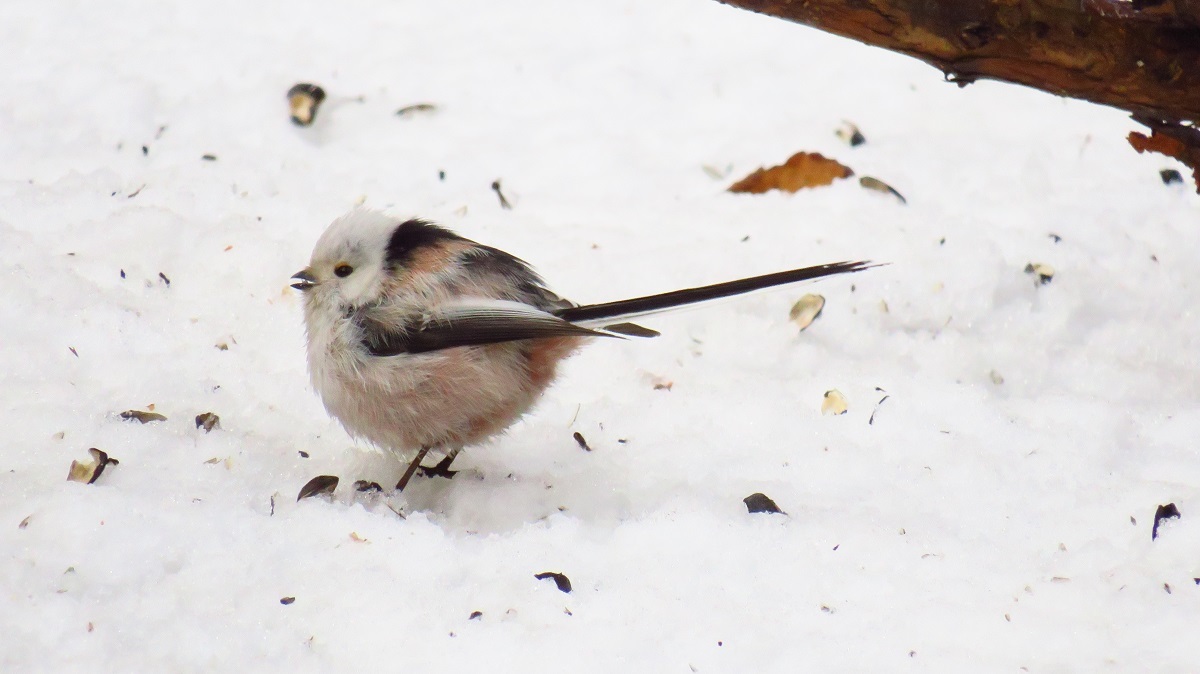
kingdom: Animalia
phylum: Chordata
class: Aves
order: Passeriformes
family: Aegithalidae
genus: Aegithalos
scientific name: Aegithalos caudatus
